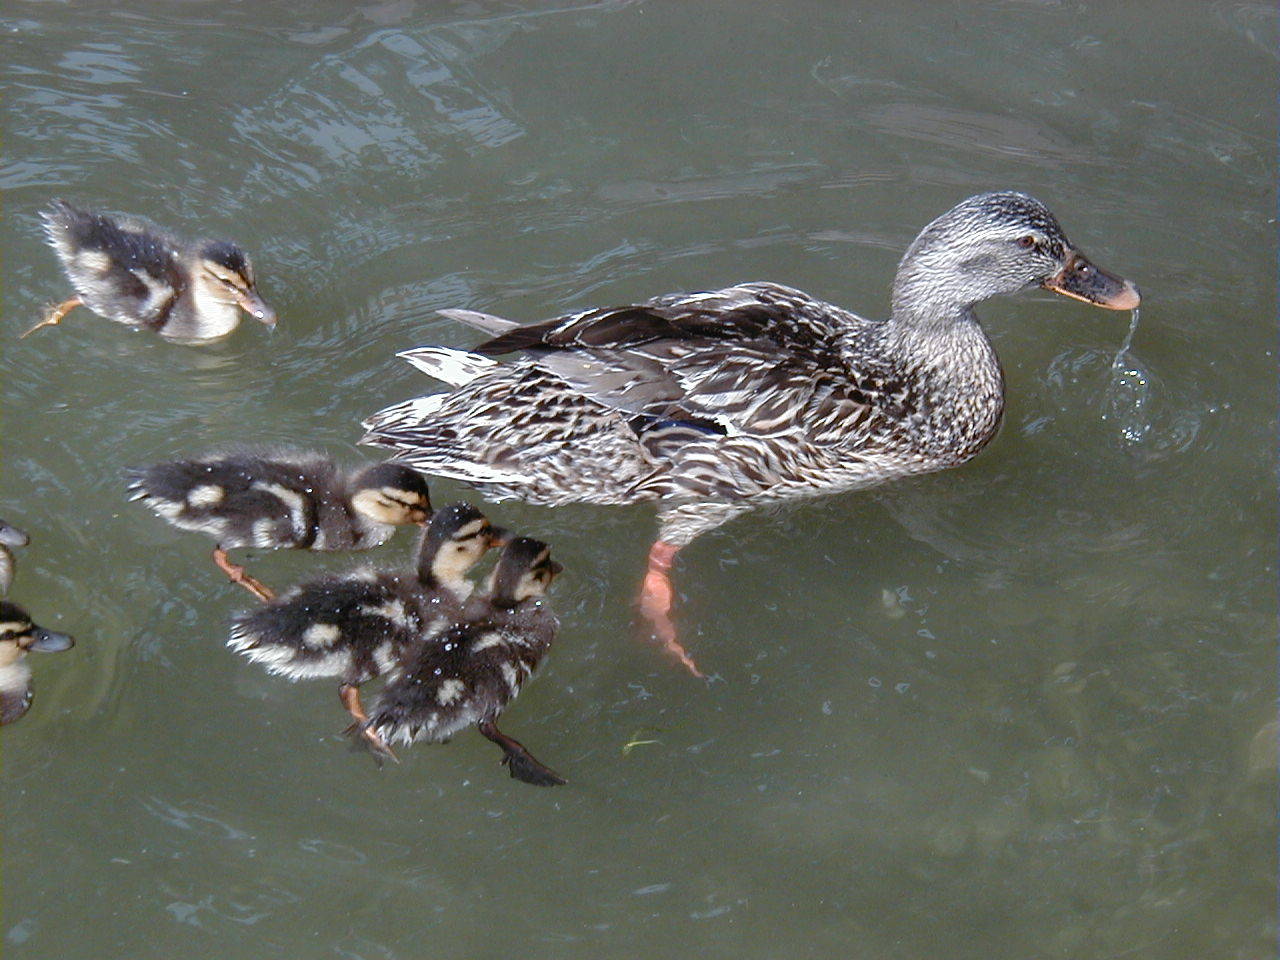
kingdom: Animalia
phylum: Chordata
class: Aves
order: Anseriformes
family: Anatidae
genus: Anas
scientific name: Anas platyrhynchos
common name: Mallard
